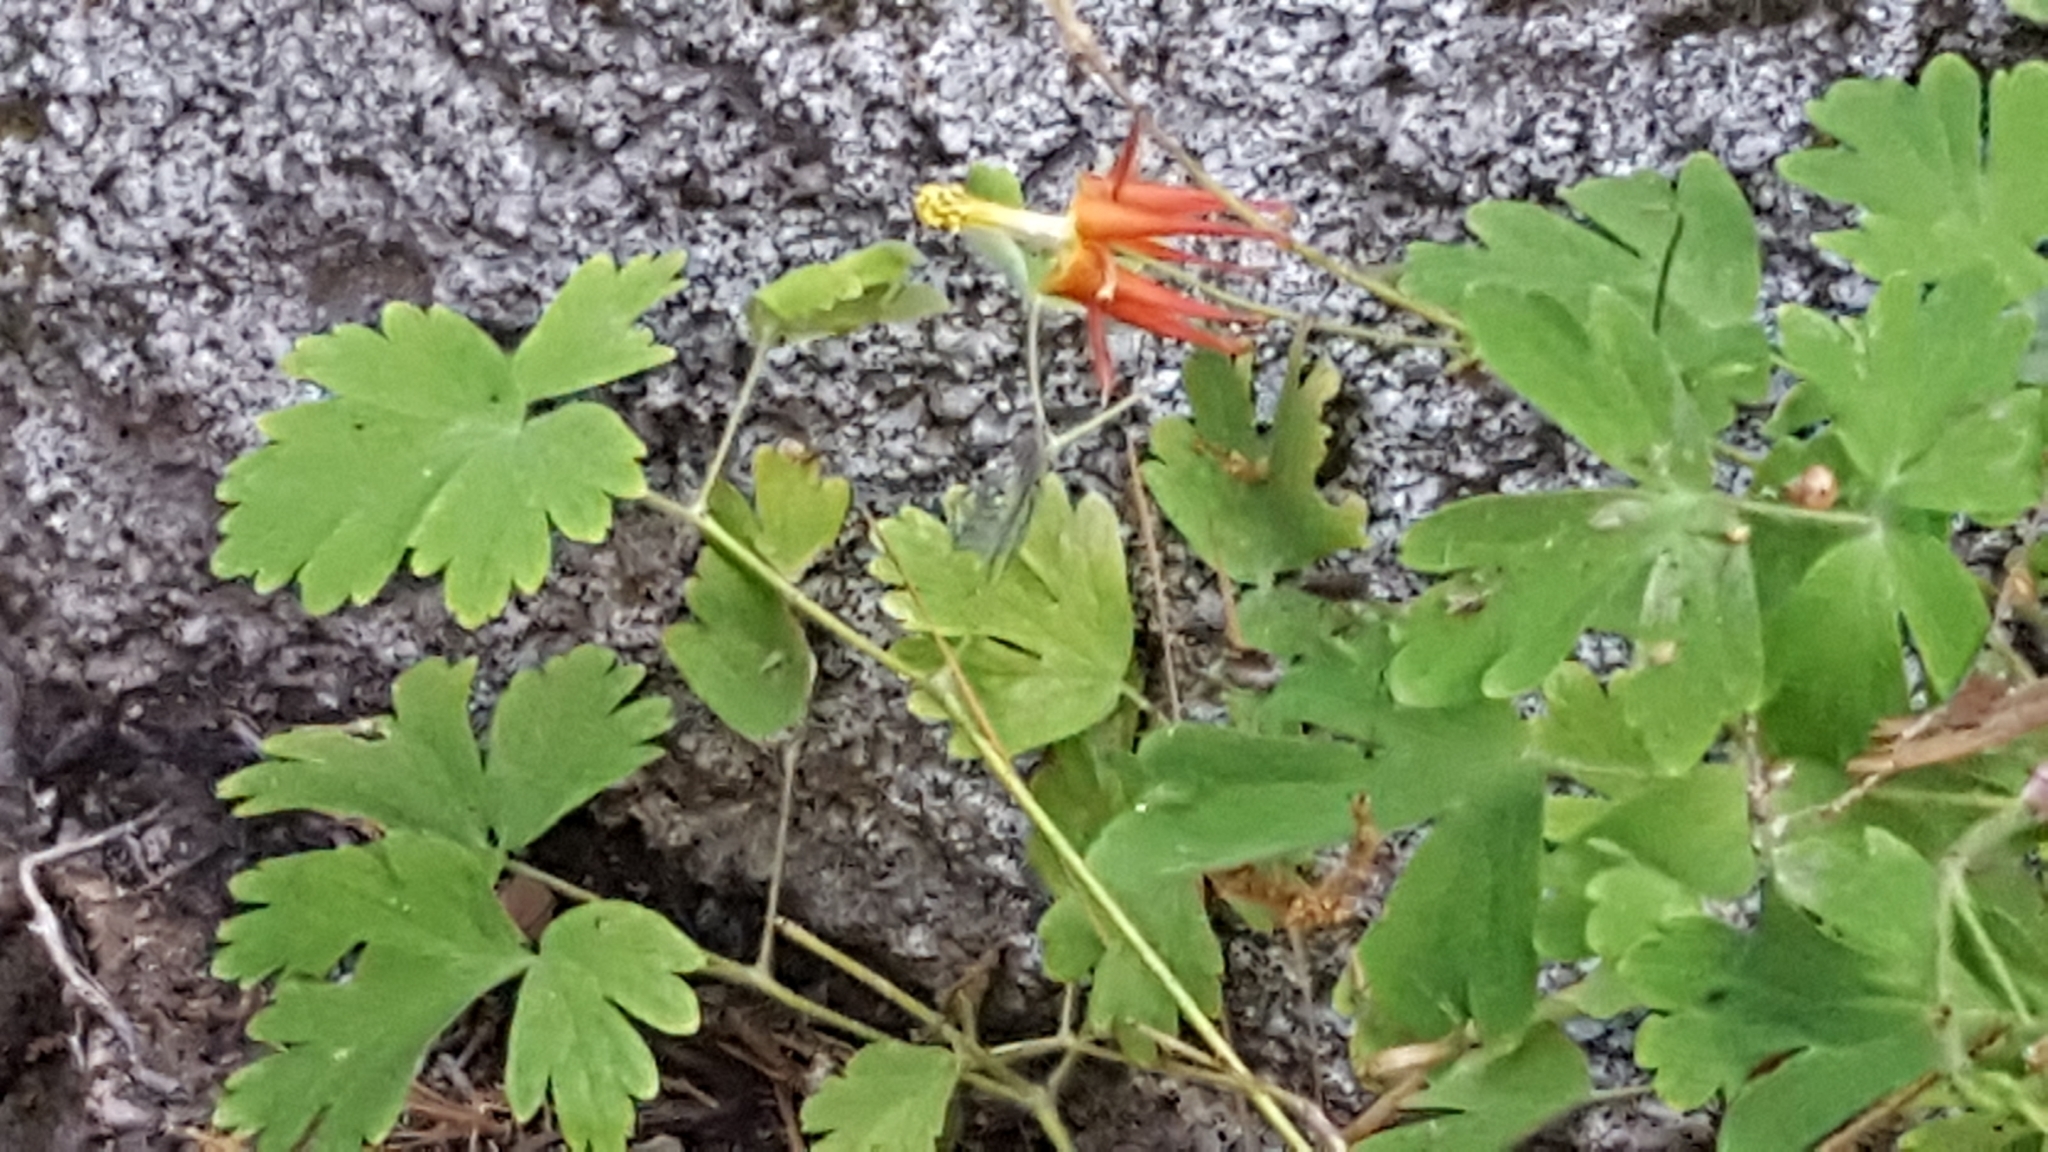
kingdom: Plantae
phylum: Tracheophyta
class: Magnoliopsida
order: Ranunculales
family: Ranunculaceae
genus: Aquilegia
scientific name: Aquilegia formosa
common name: Sitka columbine
